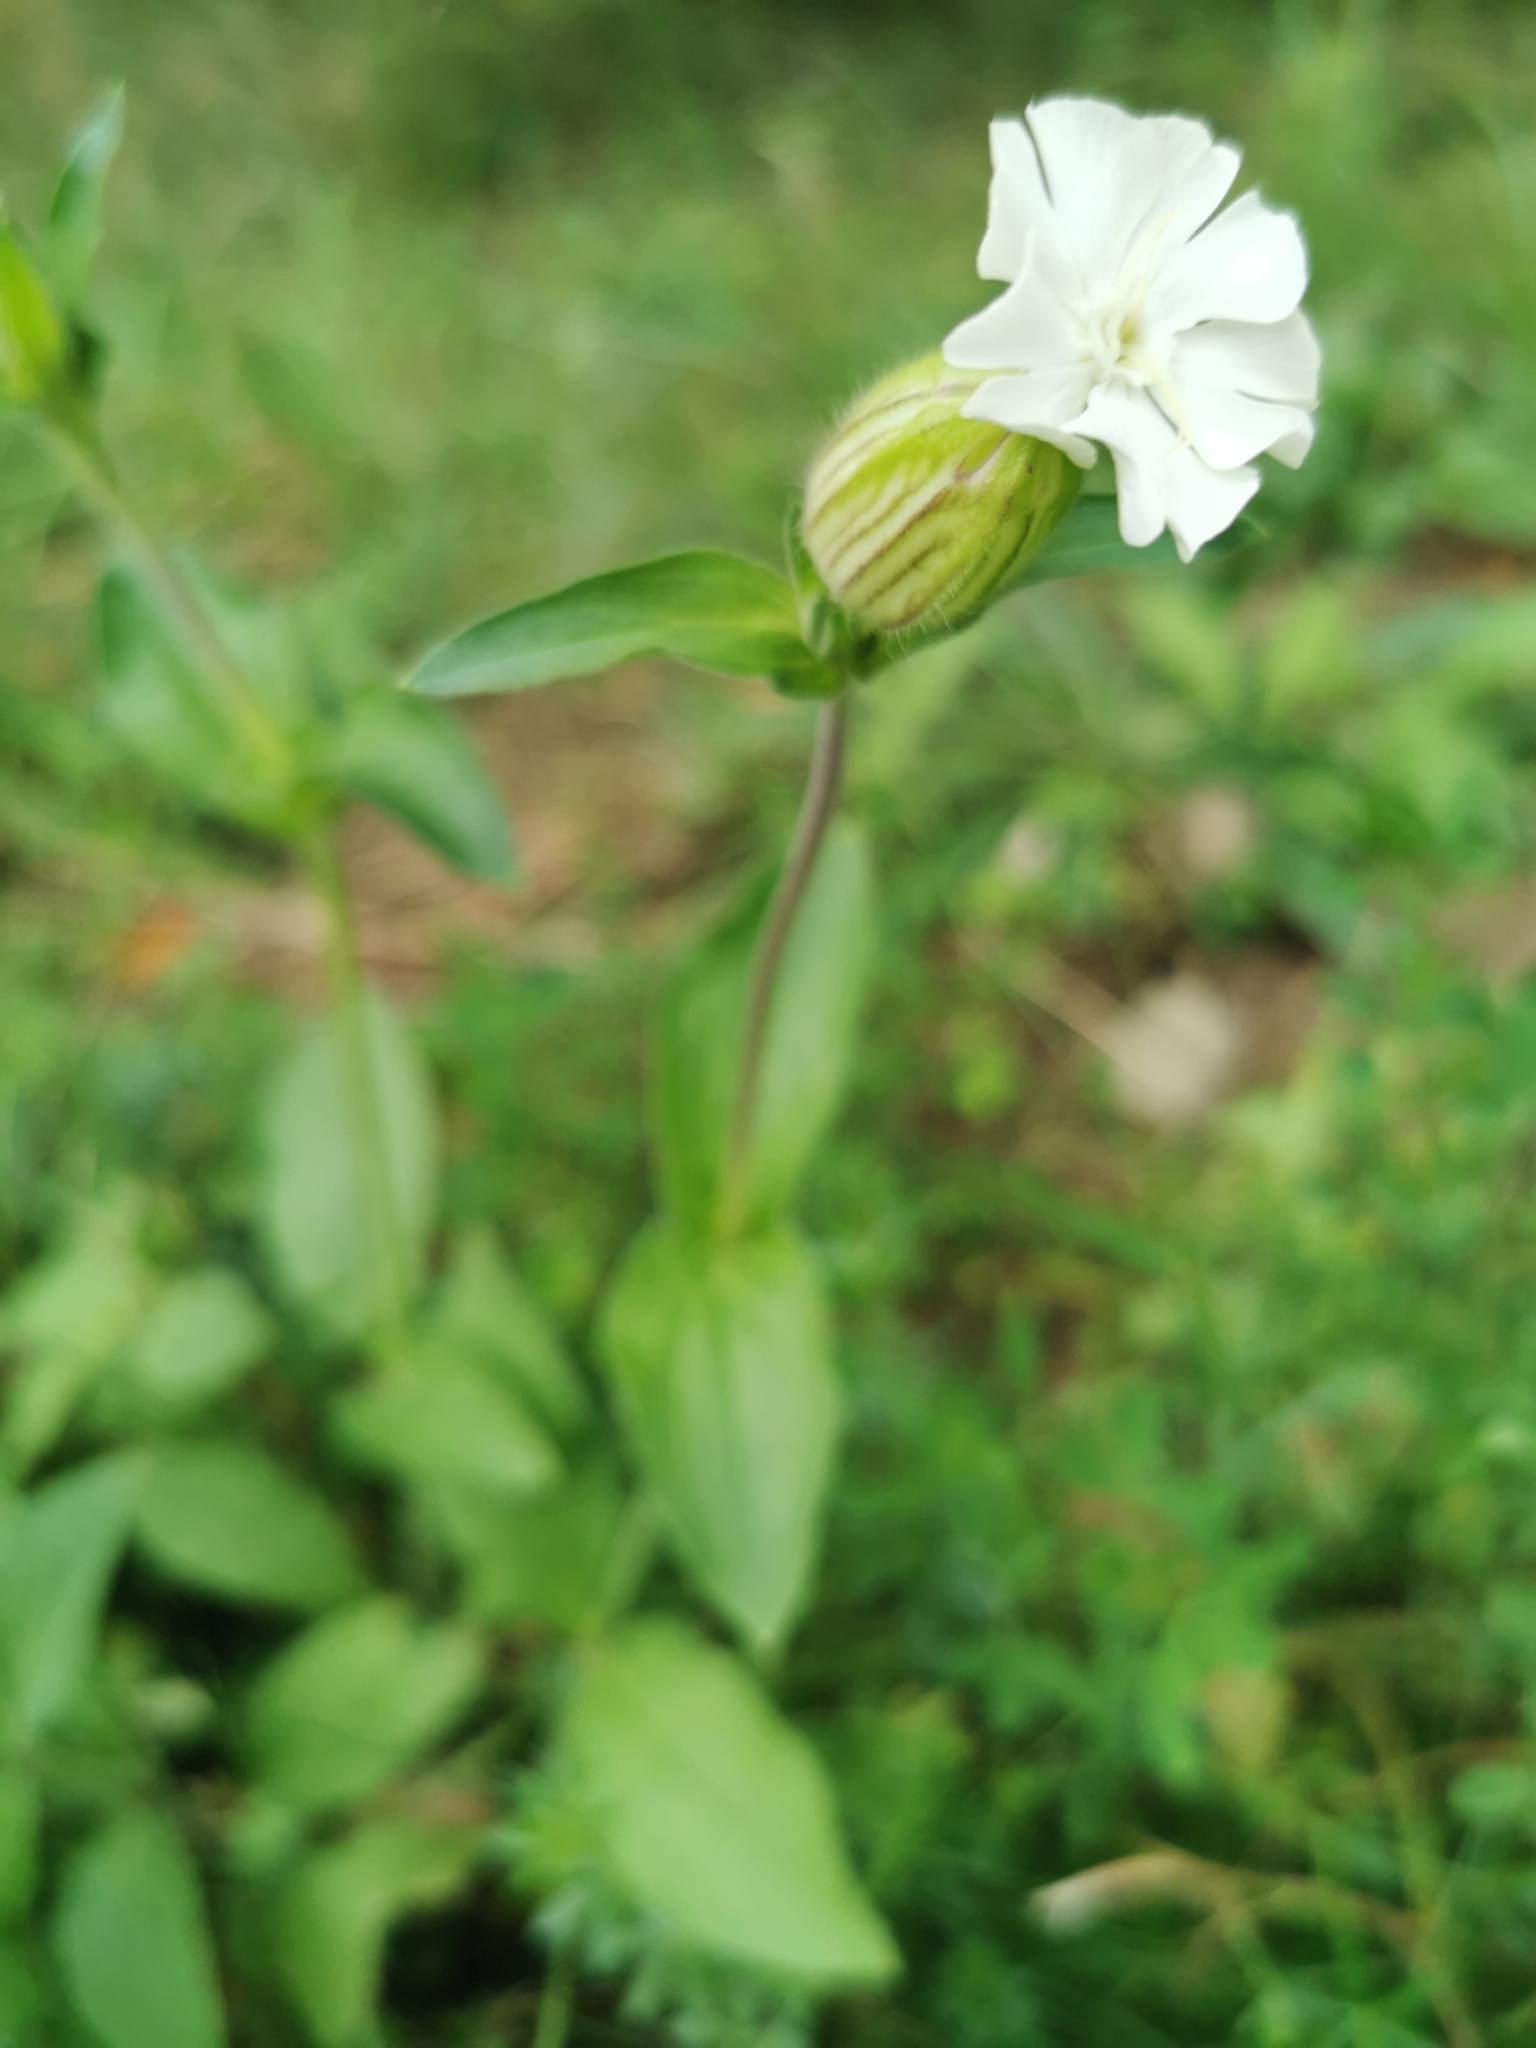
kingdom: Plantae
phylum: Tracheophyta
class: Magnoliopsida
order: Caryophyllales
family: Caryophyllaceae
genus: Silene
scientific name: Silene latifolia
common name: White campion
